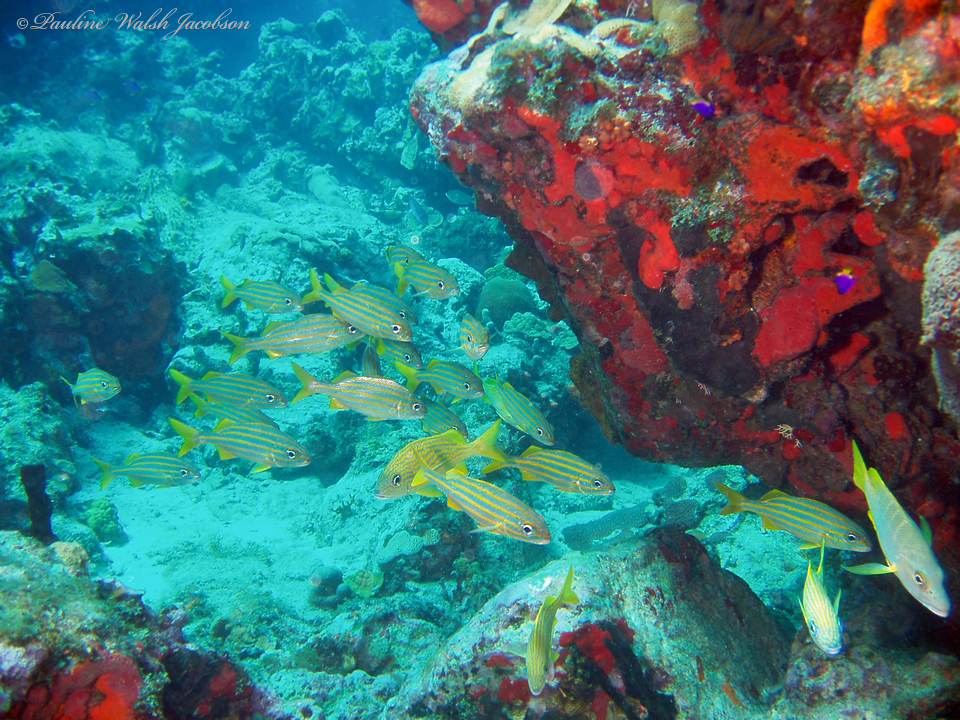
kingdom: Animalia
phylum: Chordata
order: Perciformes
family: Haemulidae
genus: Haemulon
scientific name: Haemulon chrysargyreum
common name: Smallmouth grunt
